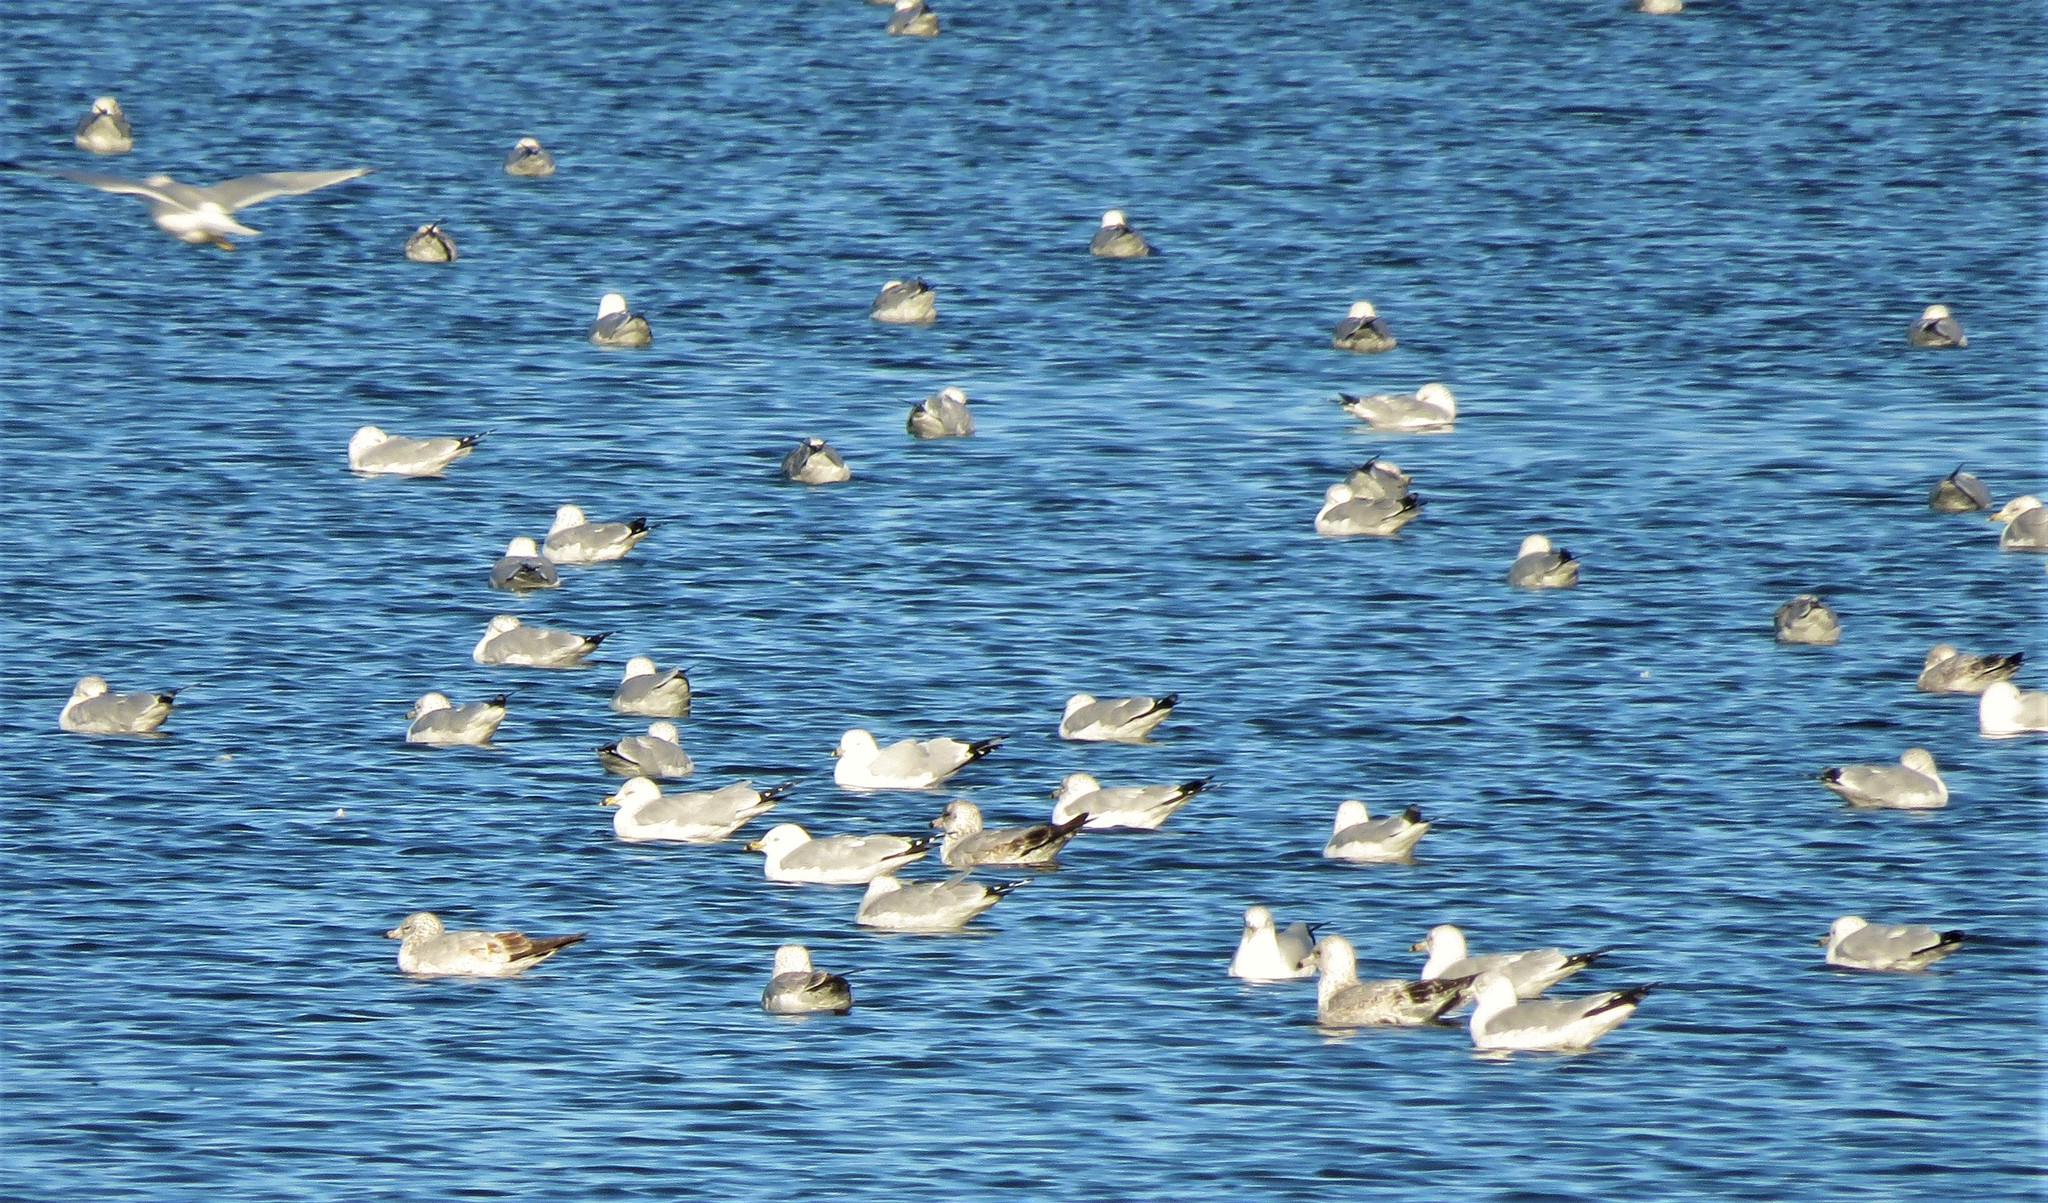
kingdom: Animalia
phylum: Chordata
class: Aves
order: Charadriiformes
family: Laridae
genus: Larus
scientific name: Larus delawarensis
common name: Ring-billed gull
